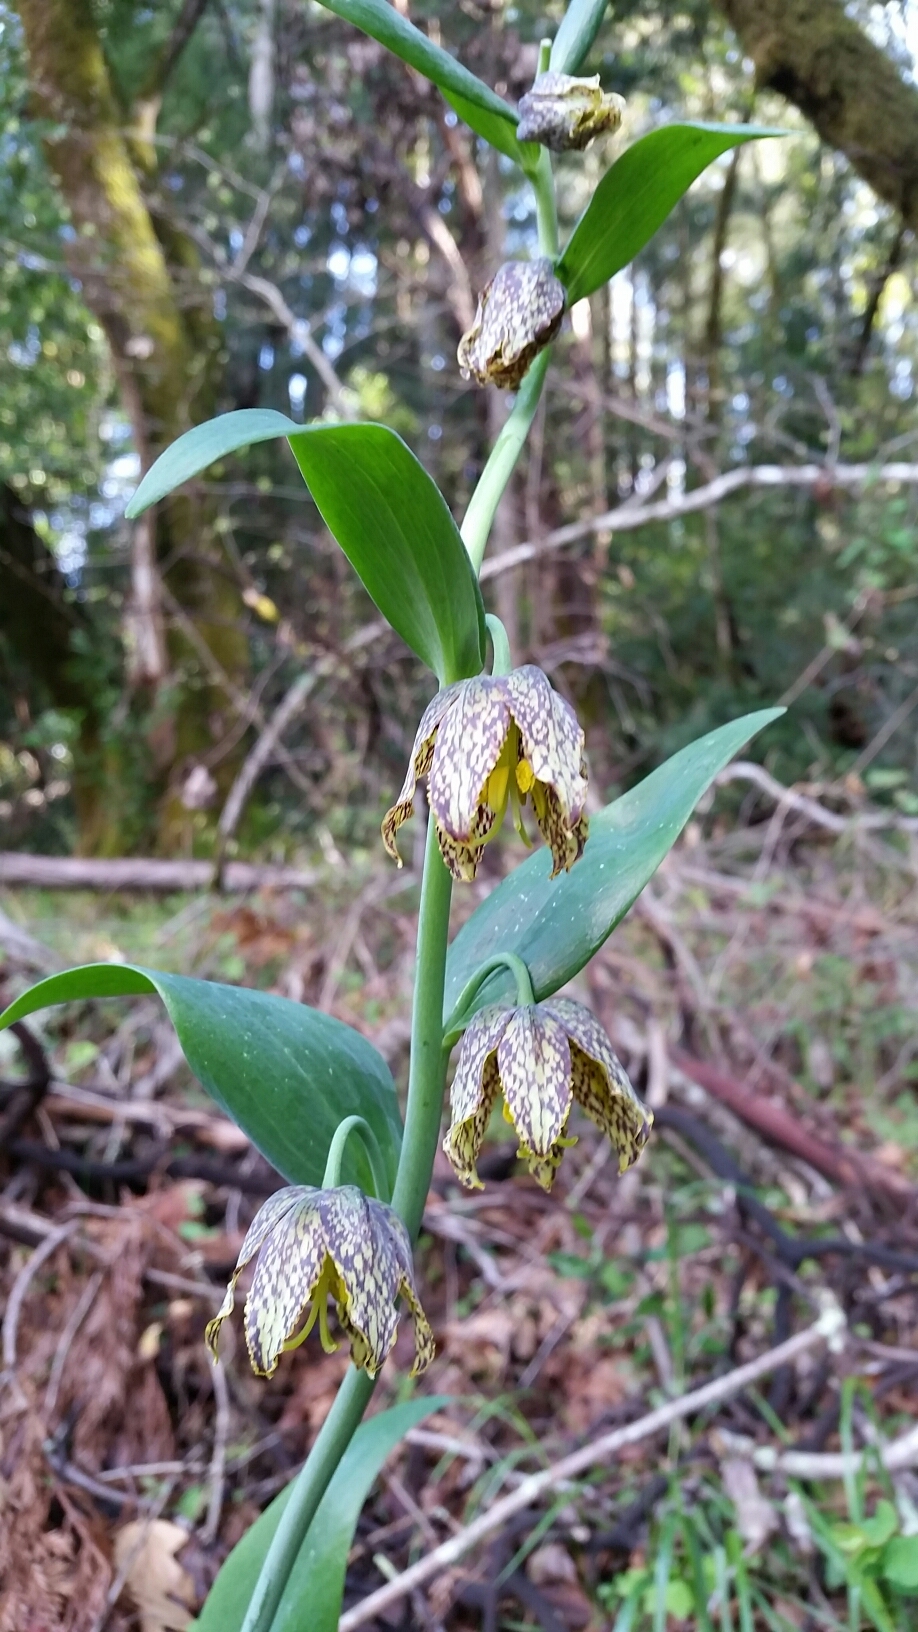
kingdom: Plantae
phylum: Tracheophyta
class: Liliopsida
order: Liliales
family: Liliaceae
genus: Fritillaria
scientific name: Fritillaria affinis
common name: Ojai fritillary
